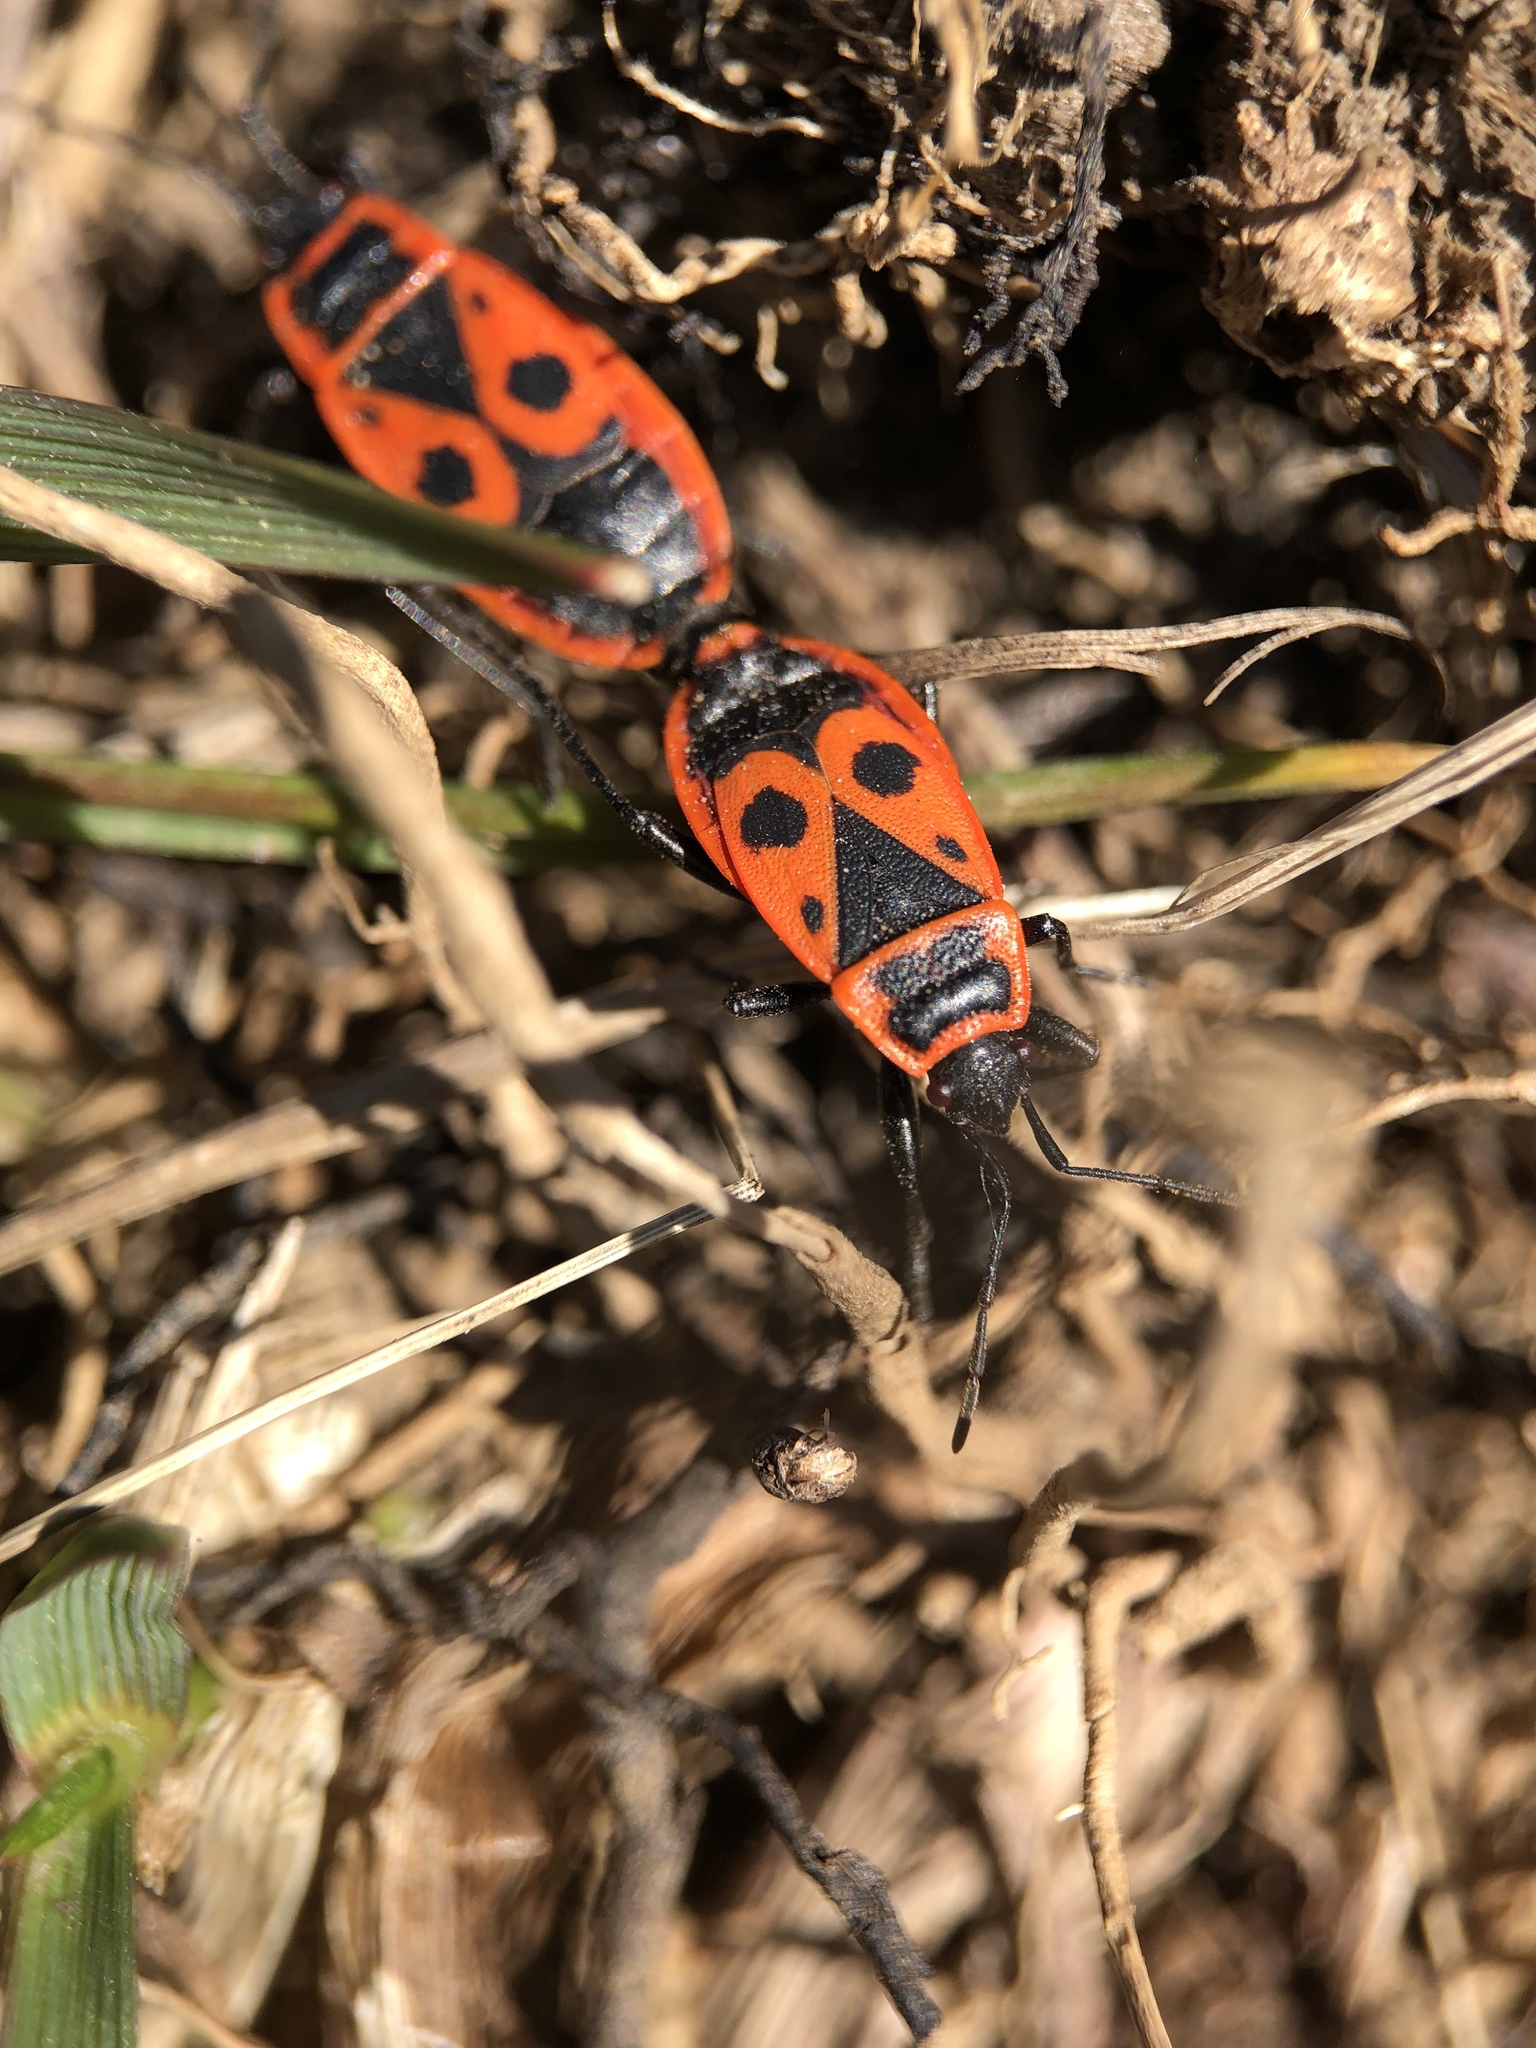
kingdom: Animalia
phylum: Arthropoda
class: Insecta
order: Hemiptera
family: Pyrrhocoridae
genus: Pyrrhocoris
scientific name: Pyrrhocoris apterus
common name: Firebug
